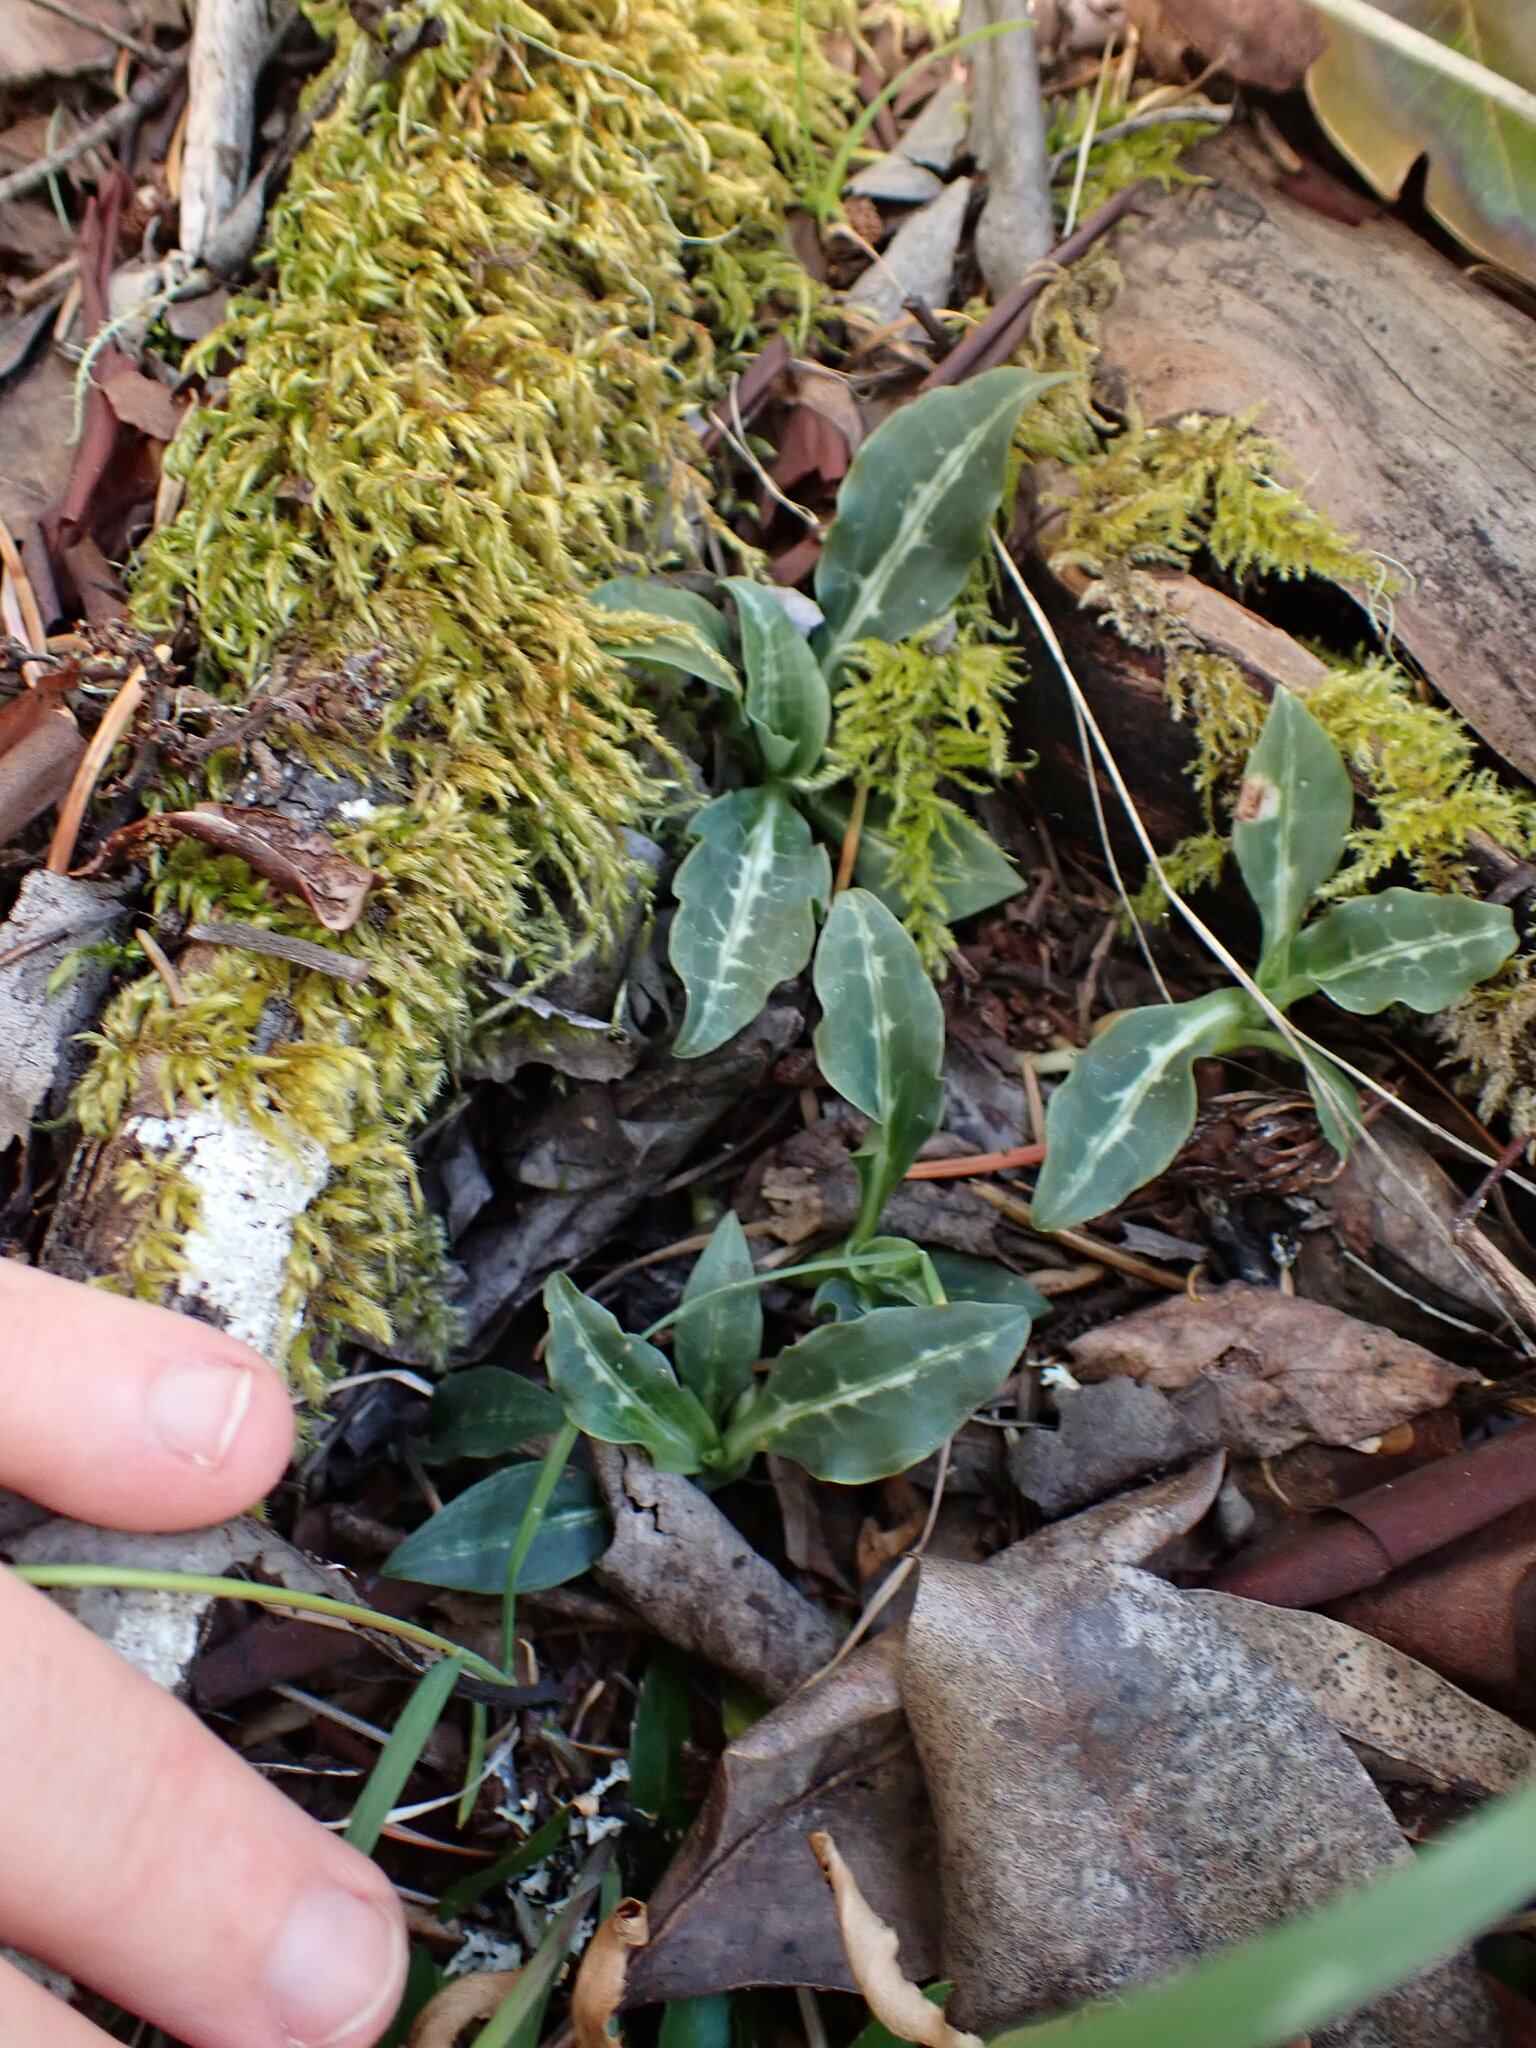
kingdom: Plantae
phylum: Tracheophyta
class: Liliopsida
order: Asparagales
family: Orchidaceae
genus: Goodyera
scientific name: Goodyera oblongifolia
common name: Giant rattlesnake-plantain
